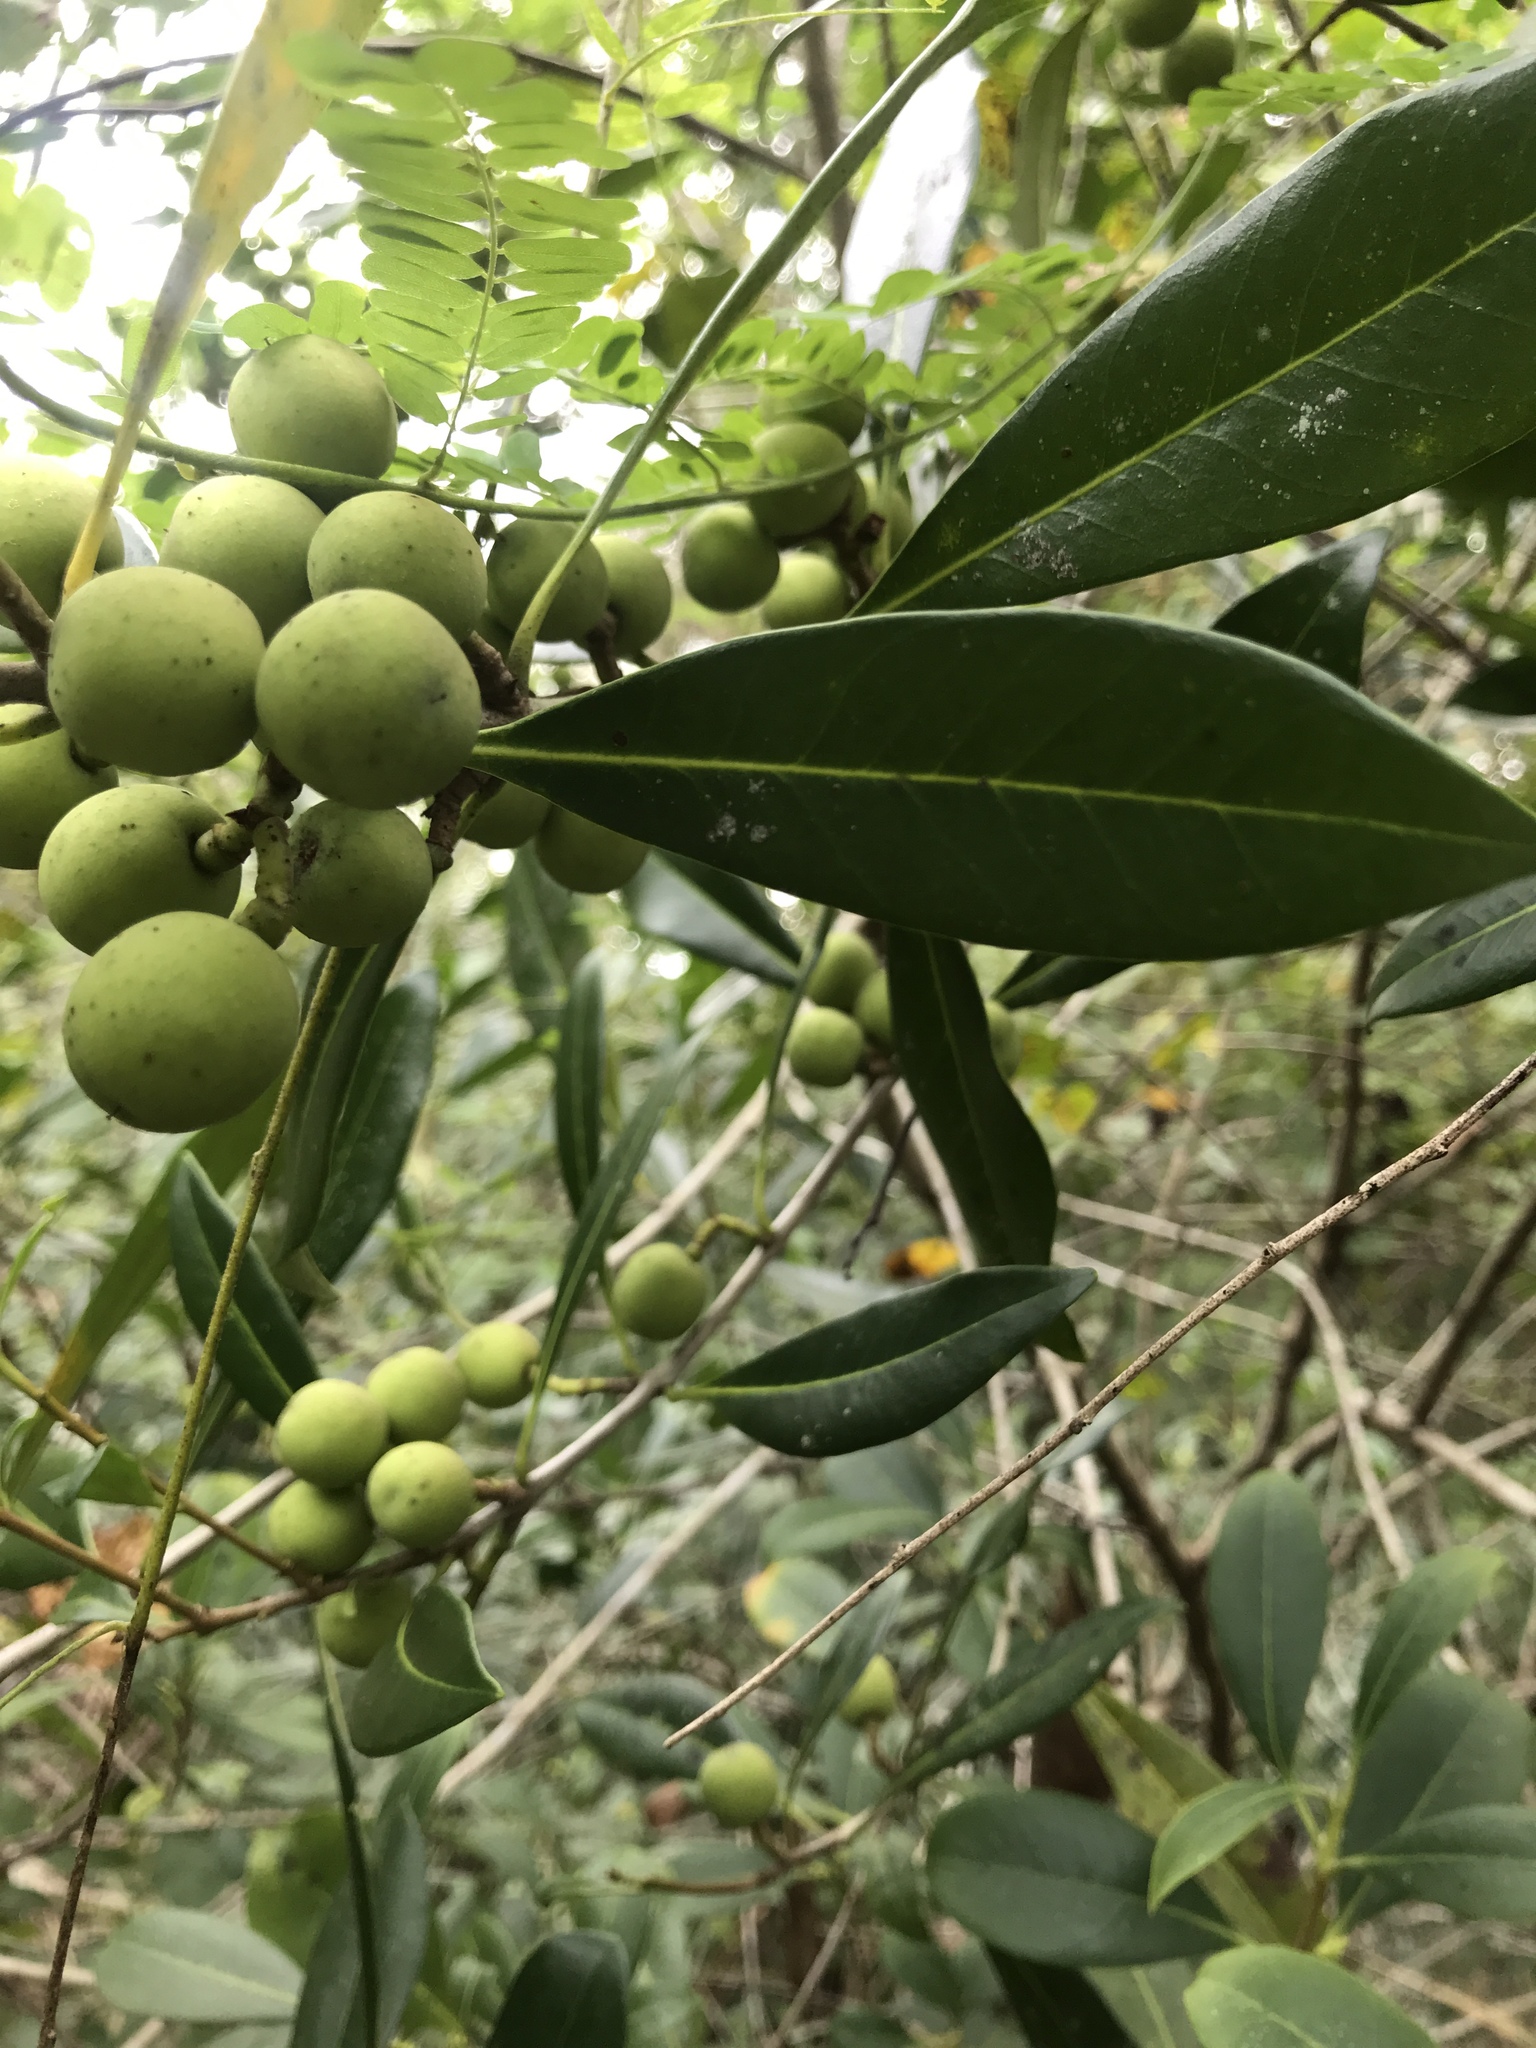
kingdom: Plantae
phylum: Tracheophyta
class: Magnoliopsida
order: Lamiales
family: Oleaceae
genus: Cartrema
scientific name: Cartrema floridana
